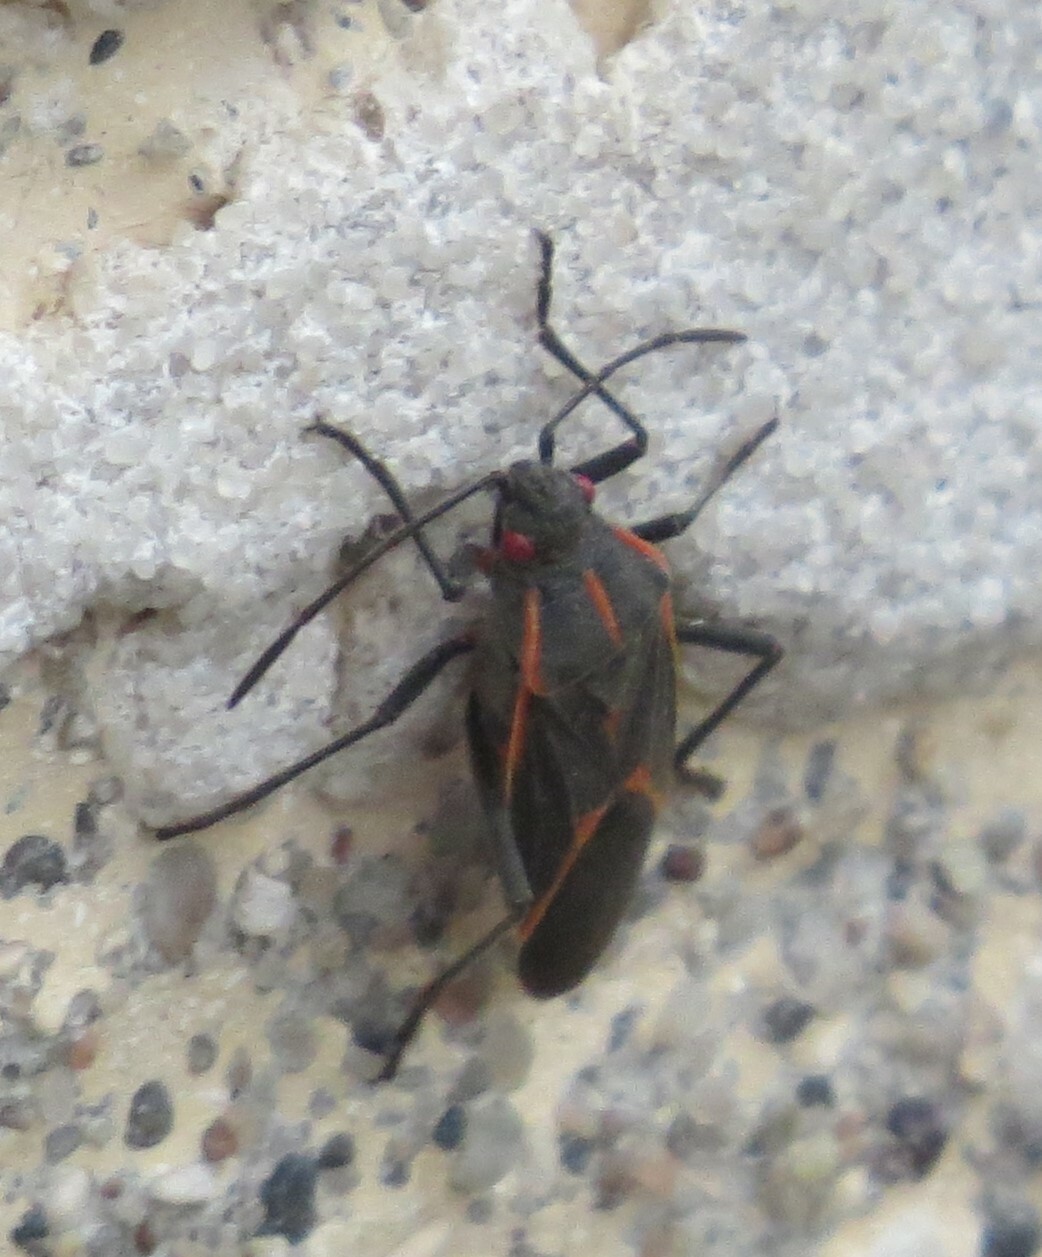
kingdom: Animalia
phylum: Arthropoda
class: Insecta
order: Hemiptera
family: Rhopalidae
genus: Boisea
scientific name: Boisea trivittata
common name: Boxelder bug
